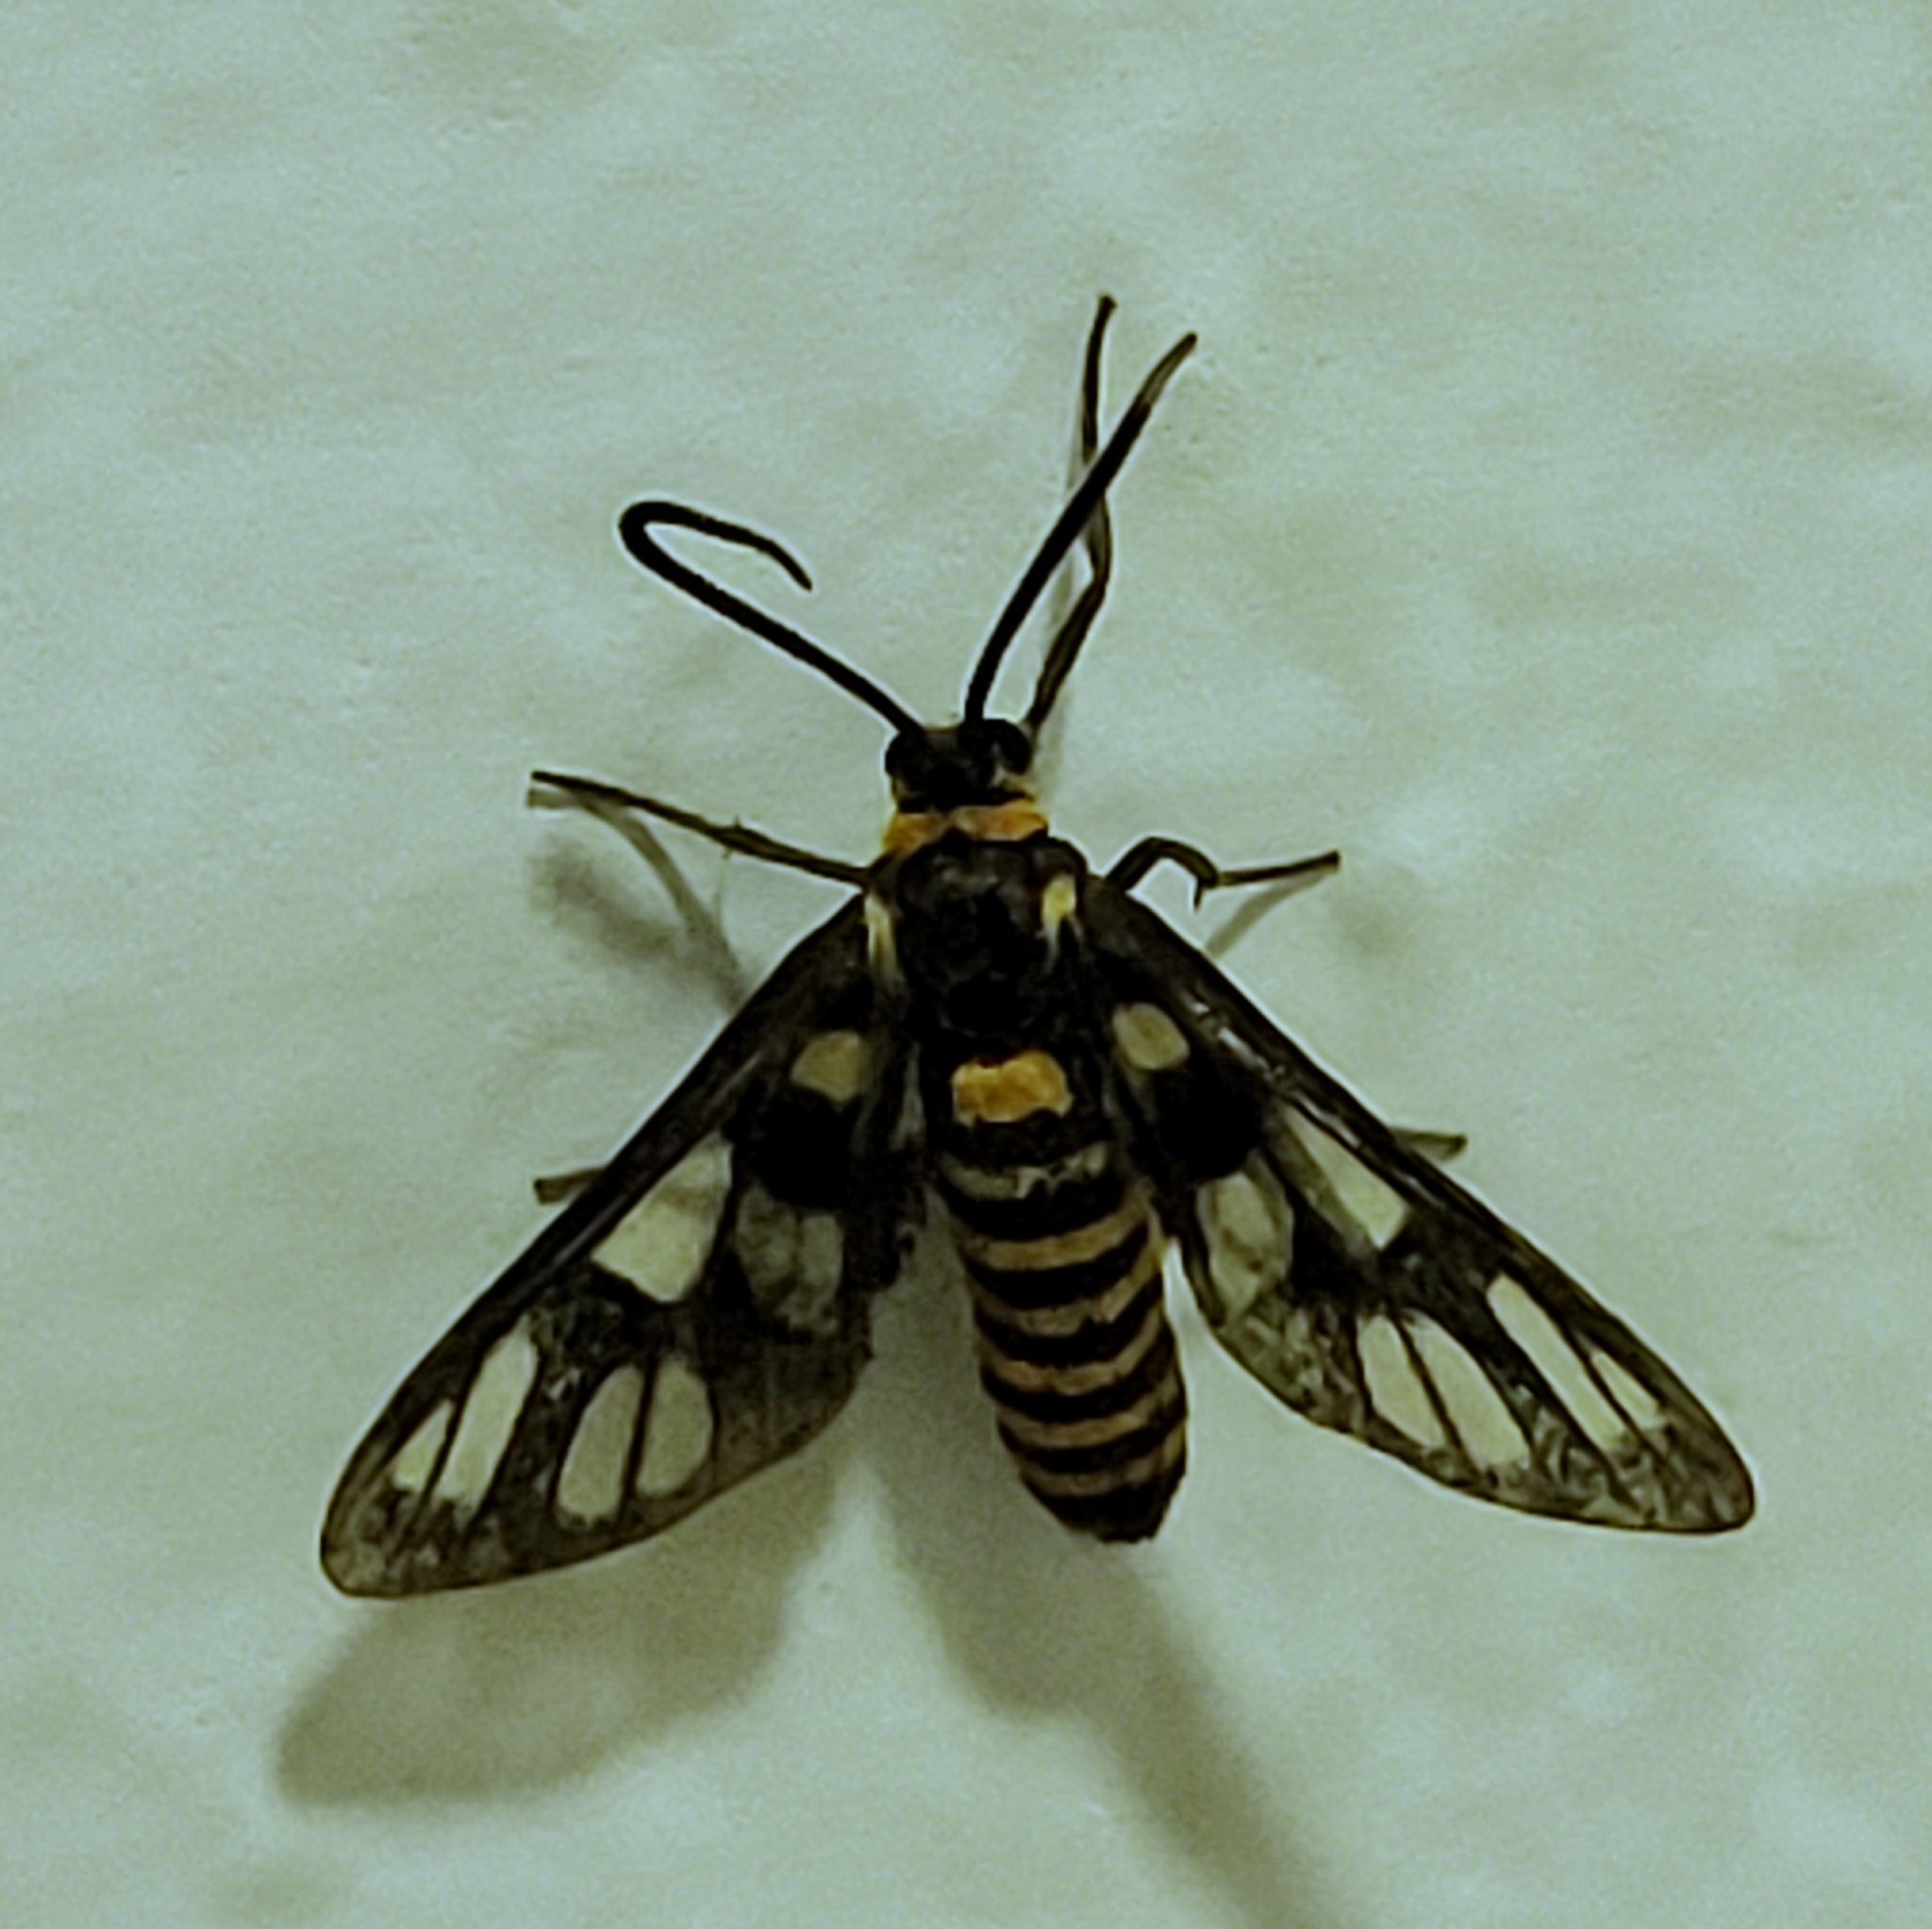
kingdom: Animalia
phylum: Arthropoda
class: Insecta
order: Lepidoptera
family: Erebidae
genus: Amata
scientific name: Amata huebneri
